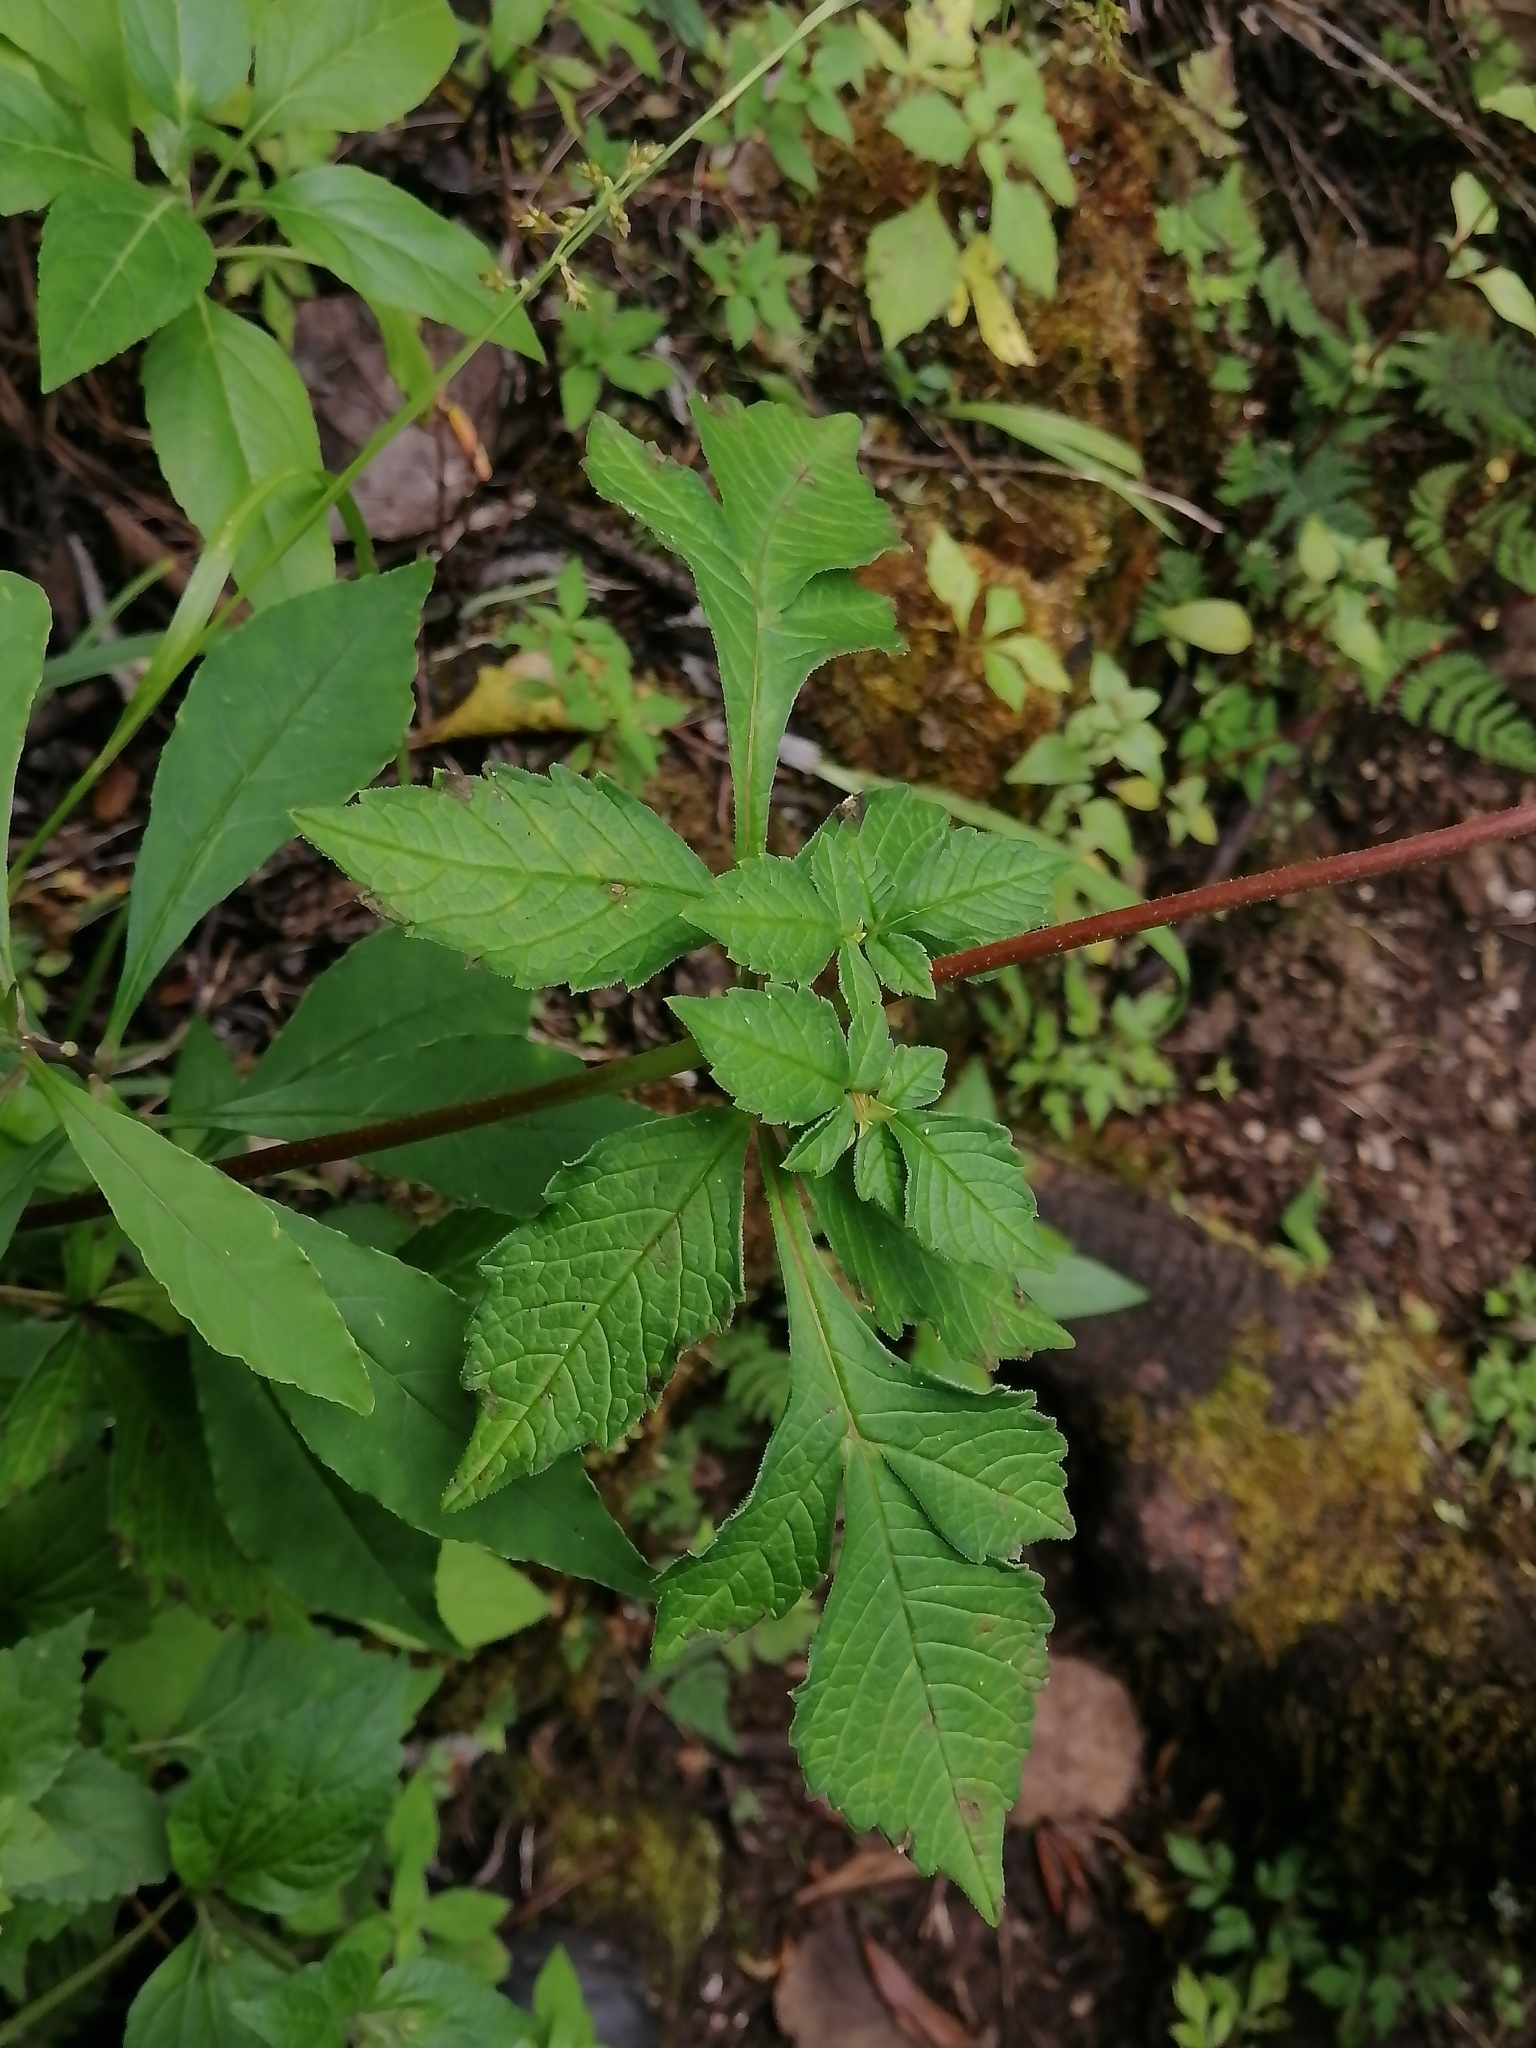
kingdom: Plantae
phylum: Tracheophyta
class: Magnoliopsida
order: Asterales
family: Asteraceae
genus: Dahlia
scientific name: Dahlia australis
